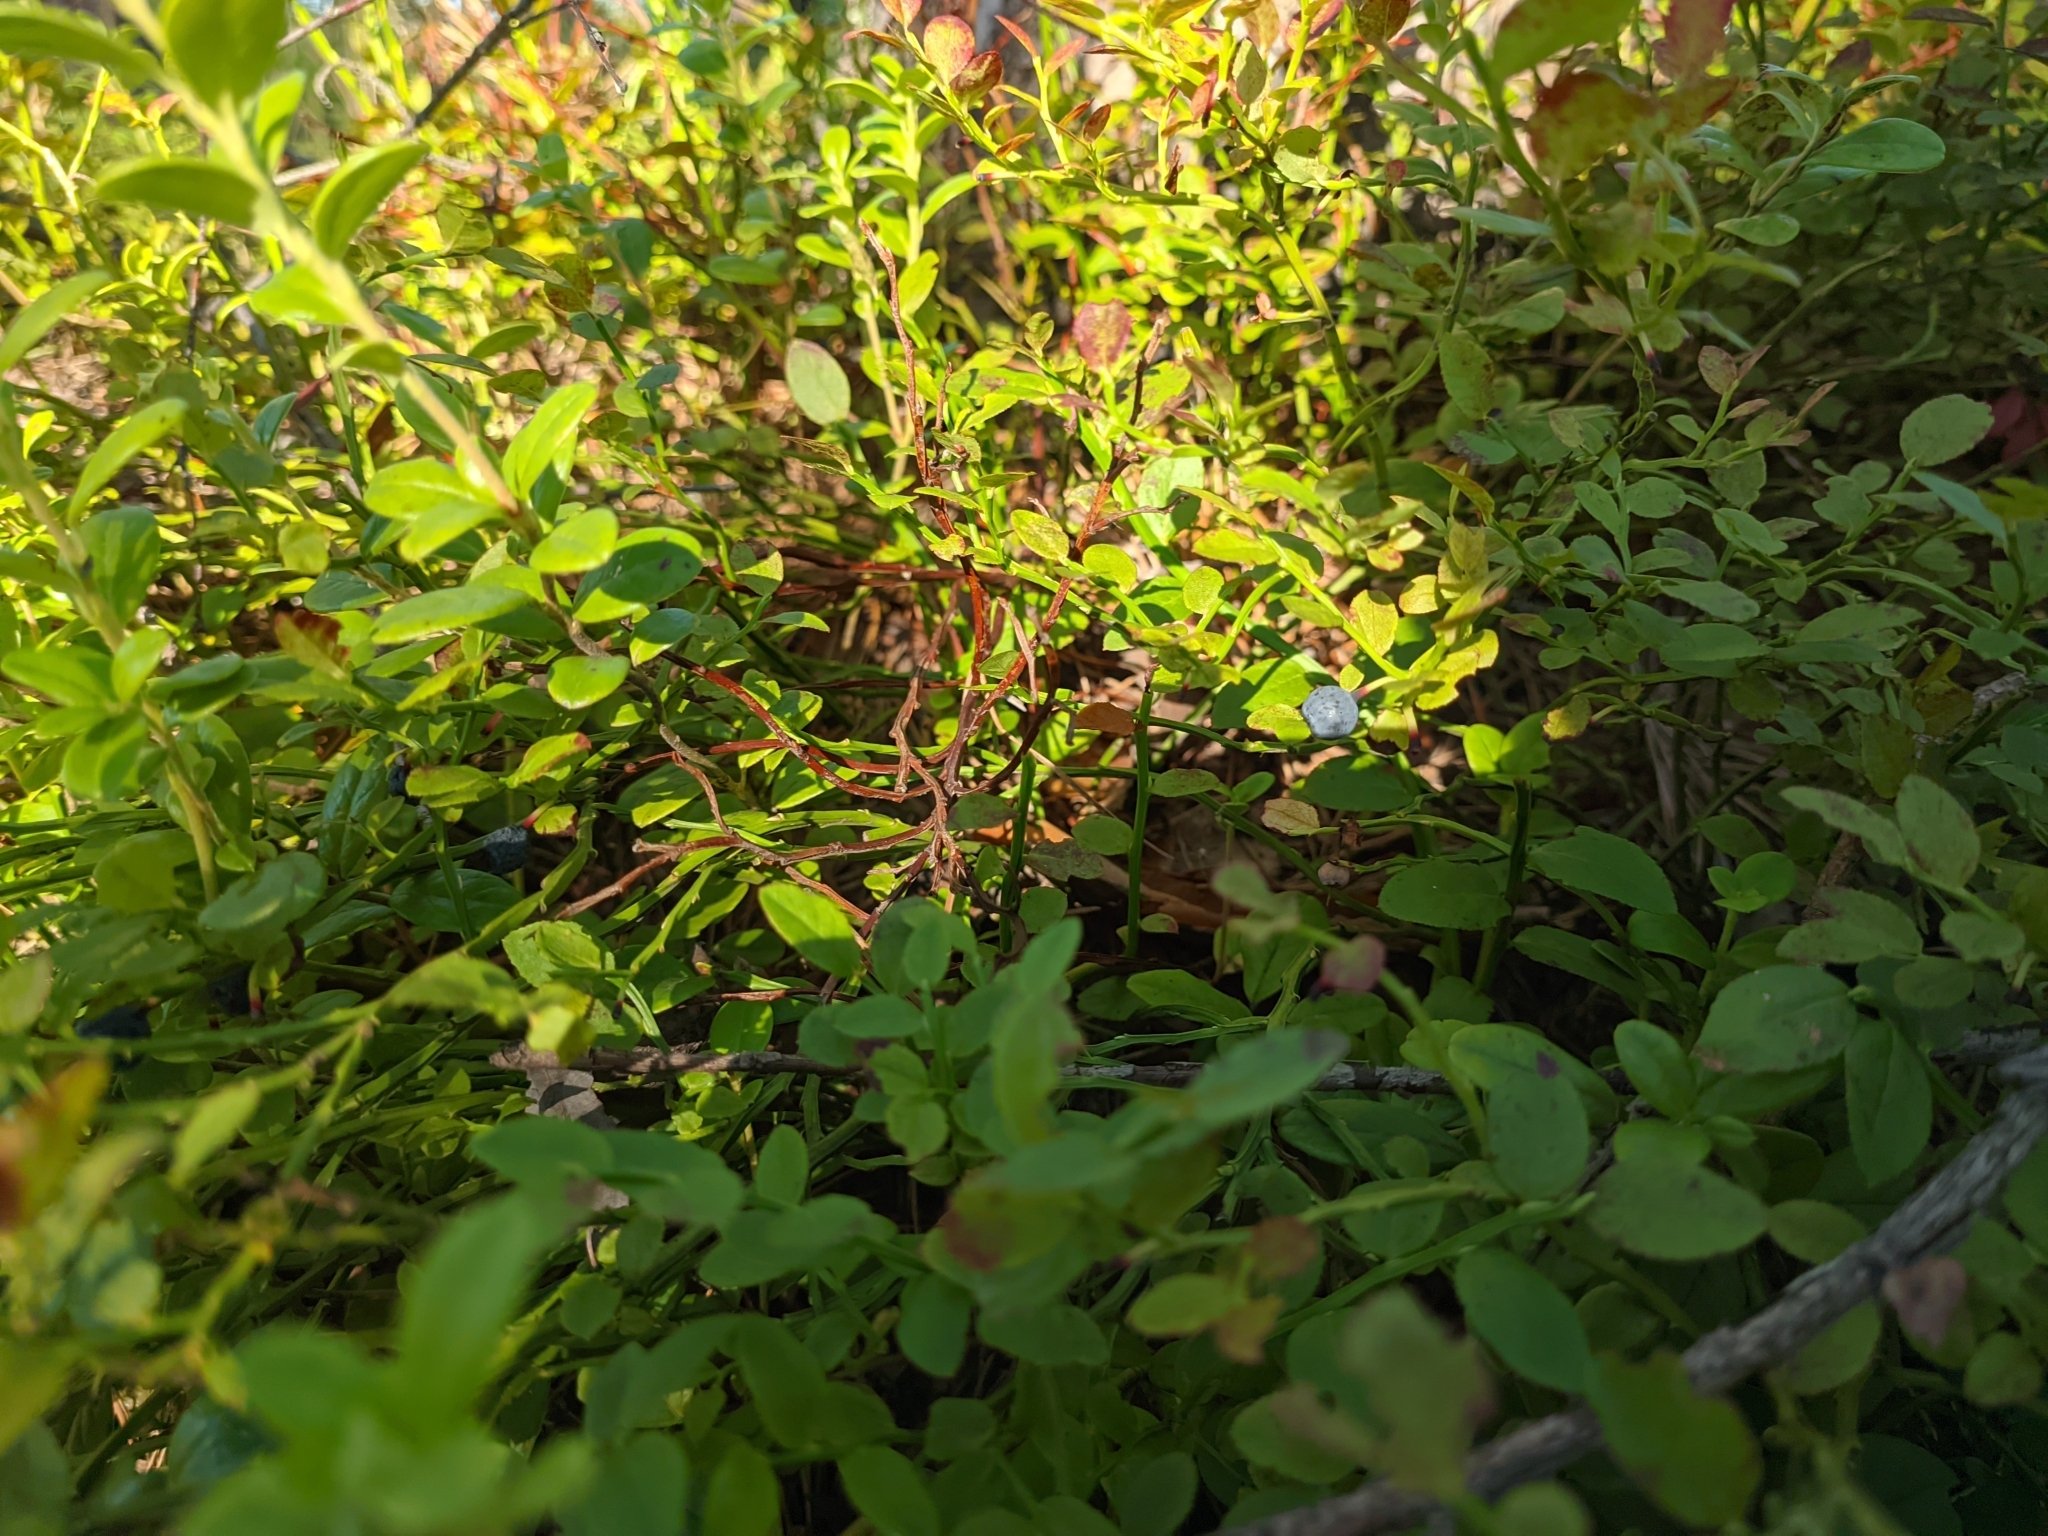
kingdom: Plantae
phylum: Tracheophyta
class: Magnoliopsida
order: Ericales
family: Ericaceae
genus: Vaccinium
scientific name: Vaccinium myrtillus
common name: Bilberry
